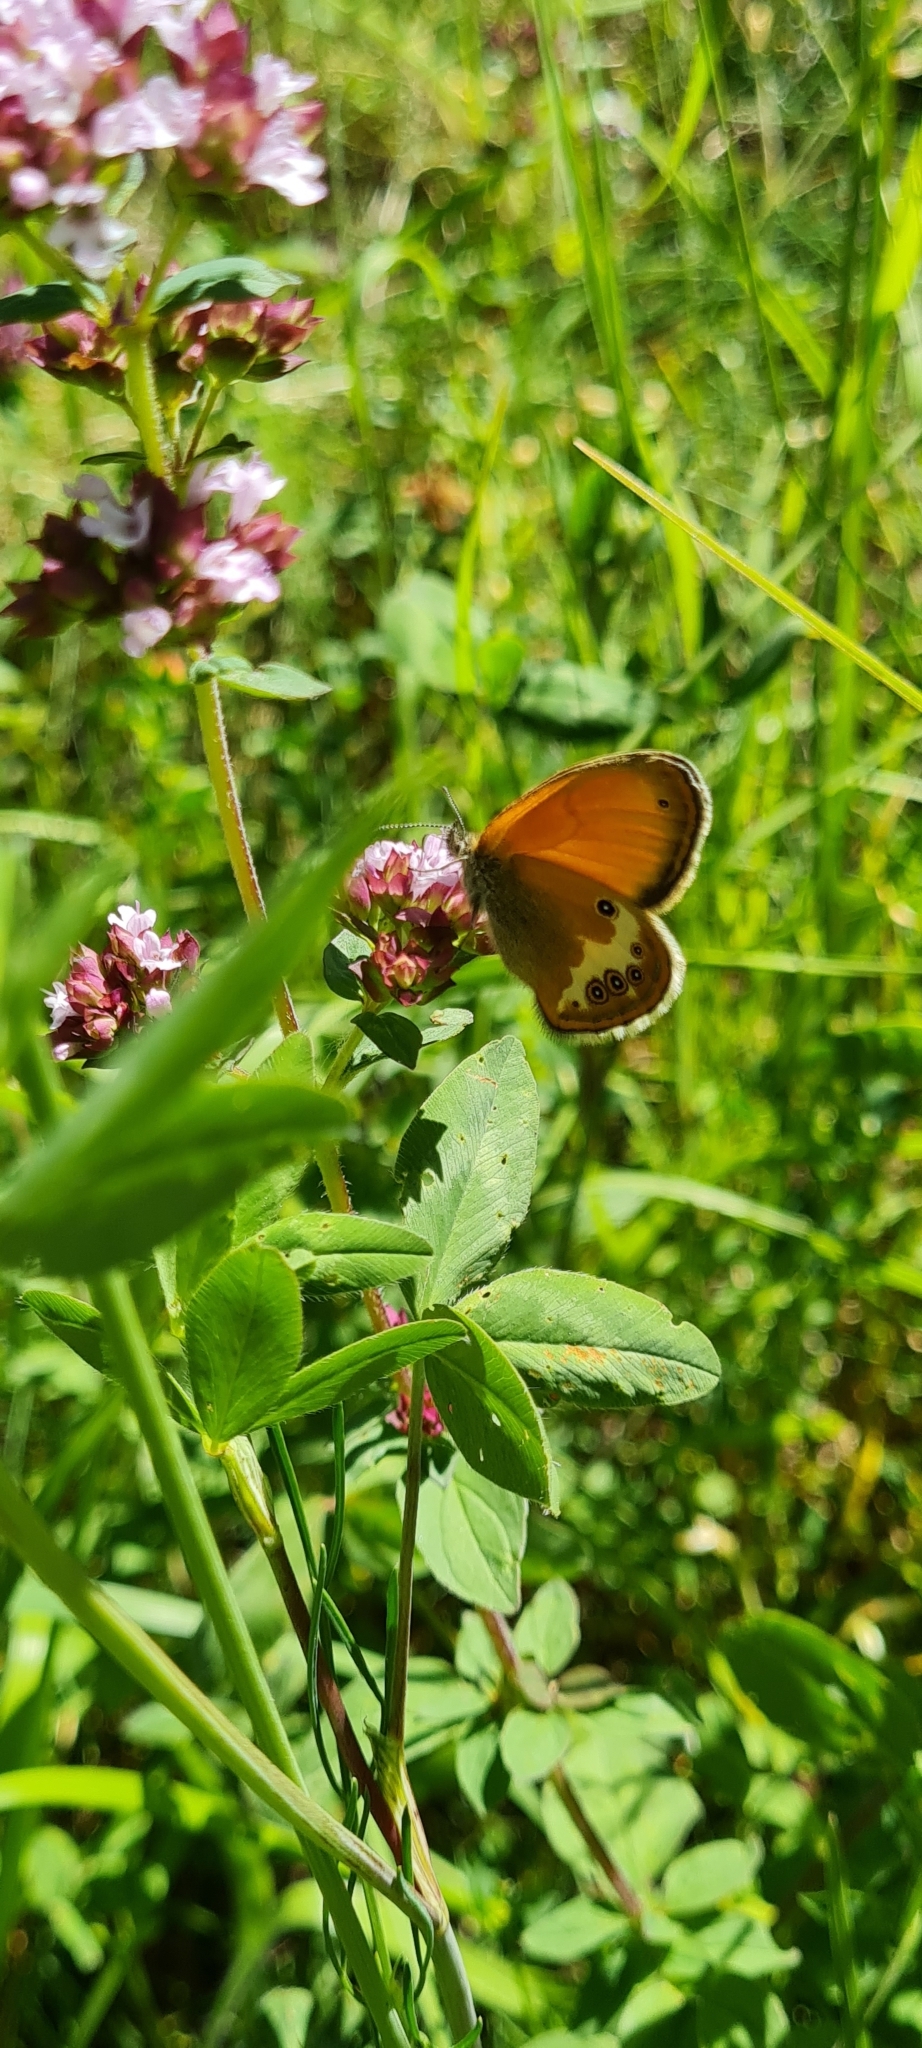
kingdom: Animalia
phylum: Arthropoda
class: Insecta
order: Lepidoptera
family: Nymphalidae
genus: Coenonympha
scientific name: Coenonympha arcania
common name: Pearly heath
